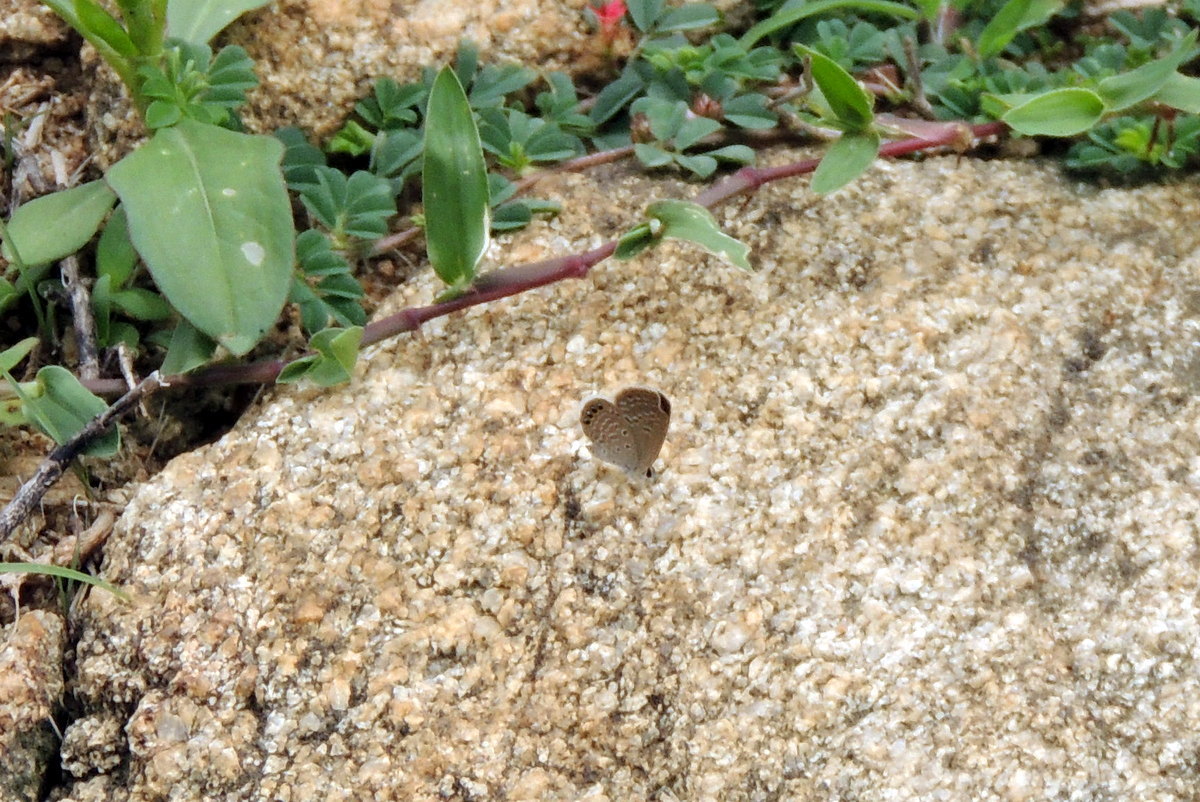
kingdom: Animalia
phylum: Arthropoda
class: Insecta
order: Lepidoptera
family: Lycaenidae
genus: Freyeria
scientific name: Freyeria putli
